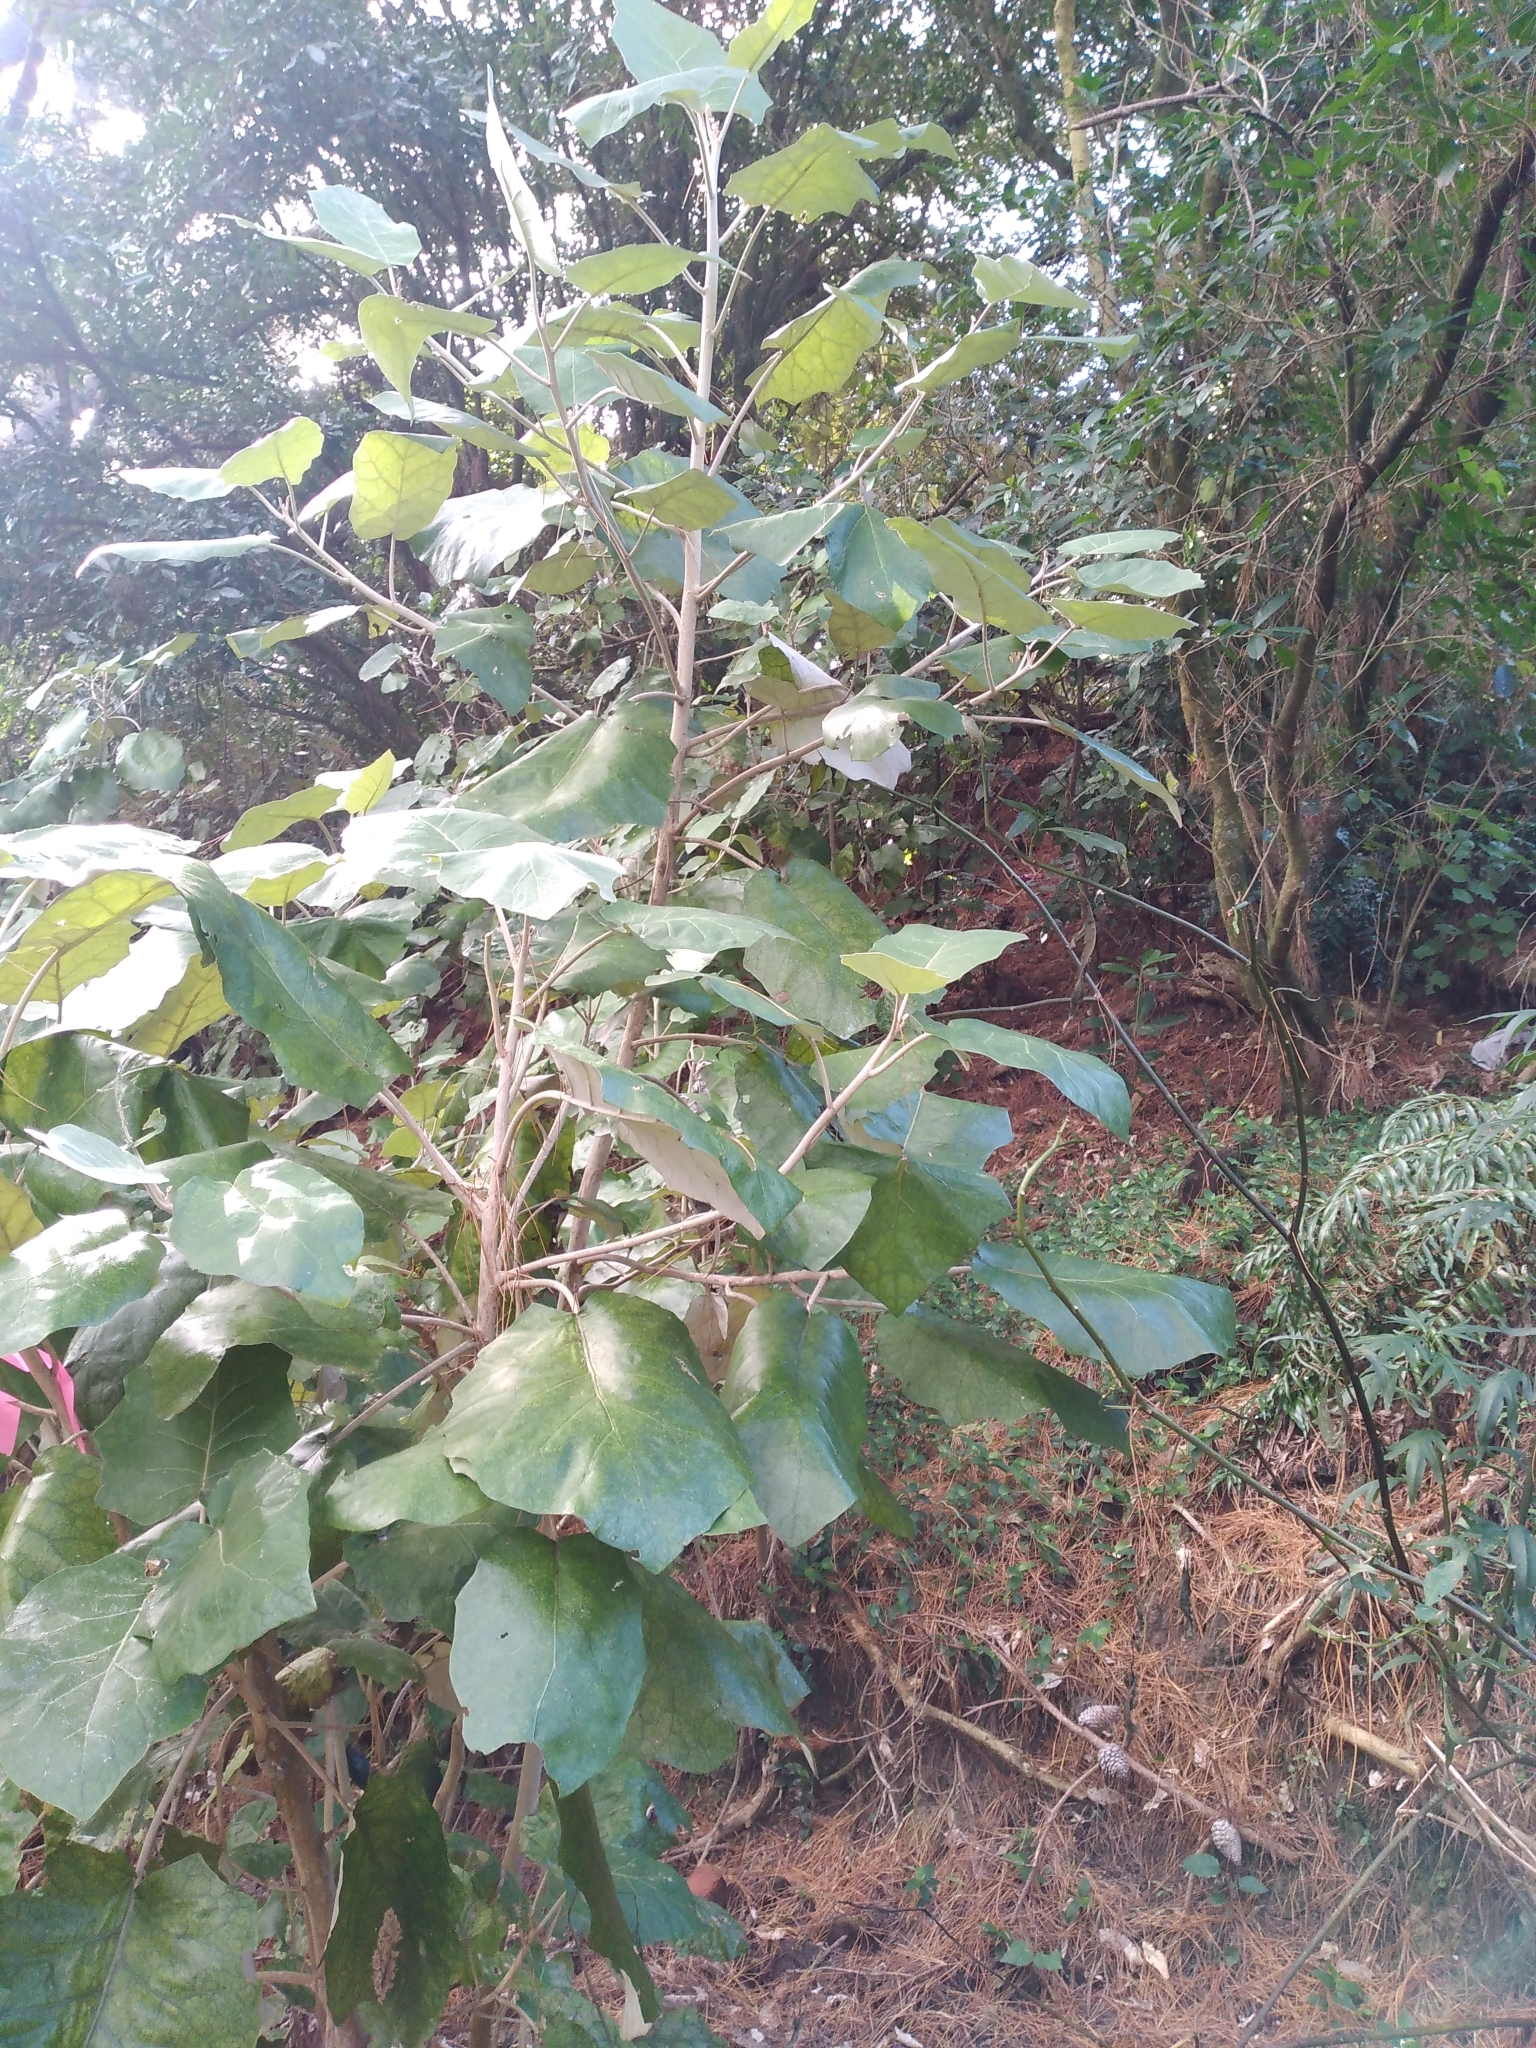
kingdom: Plantae
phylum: Tracheophyta
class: Magnoliopsida
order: Asterales
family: Asteraceae
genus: Brachyglottis
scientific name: Brachyglottis repanda
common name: Hedge ragwort
